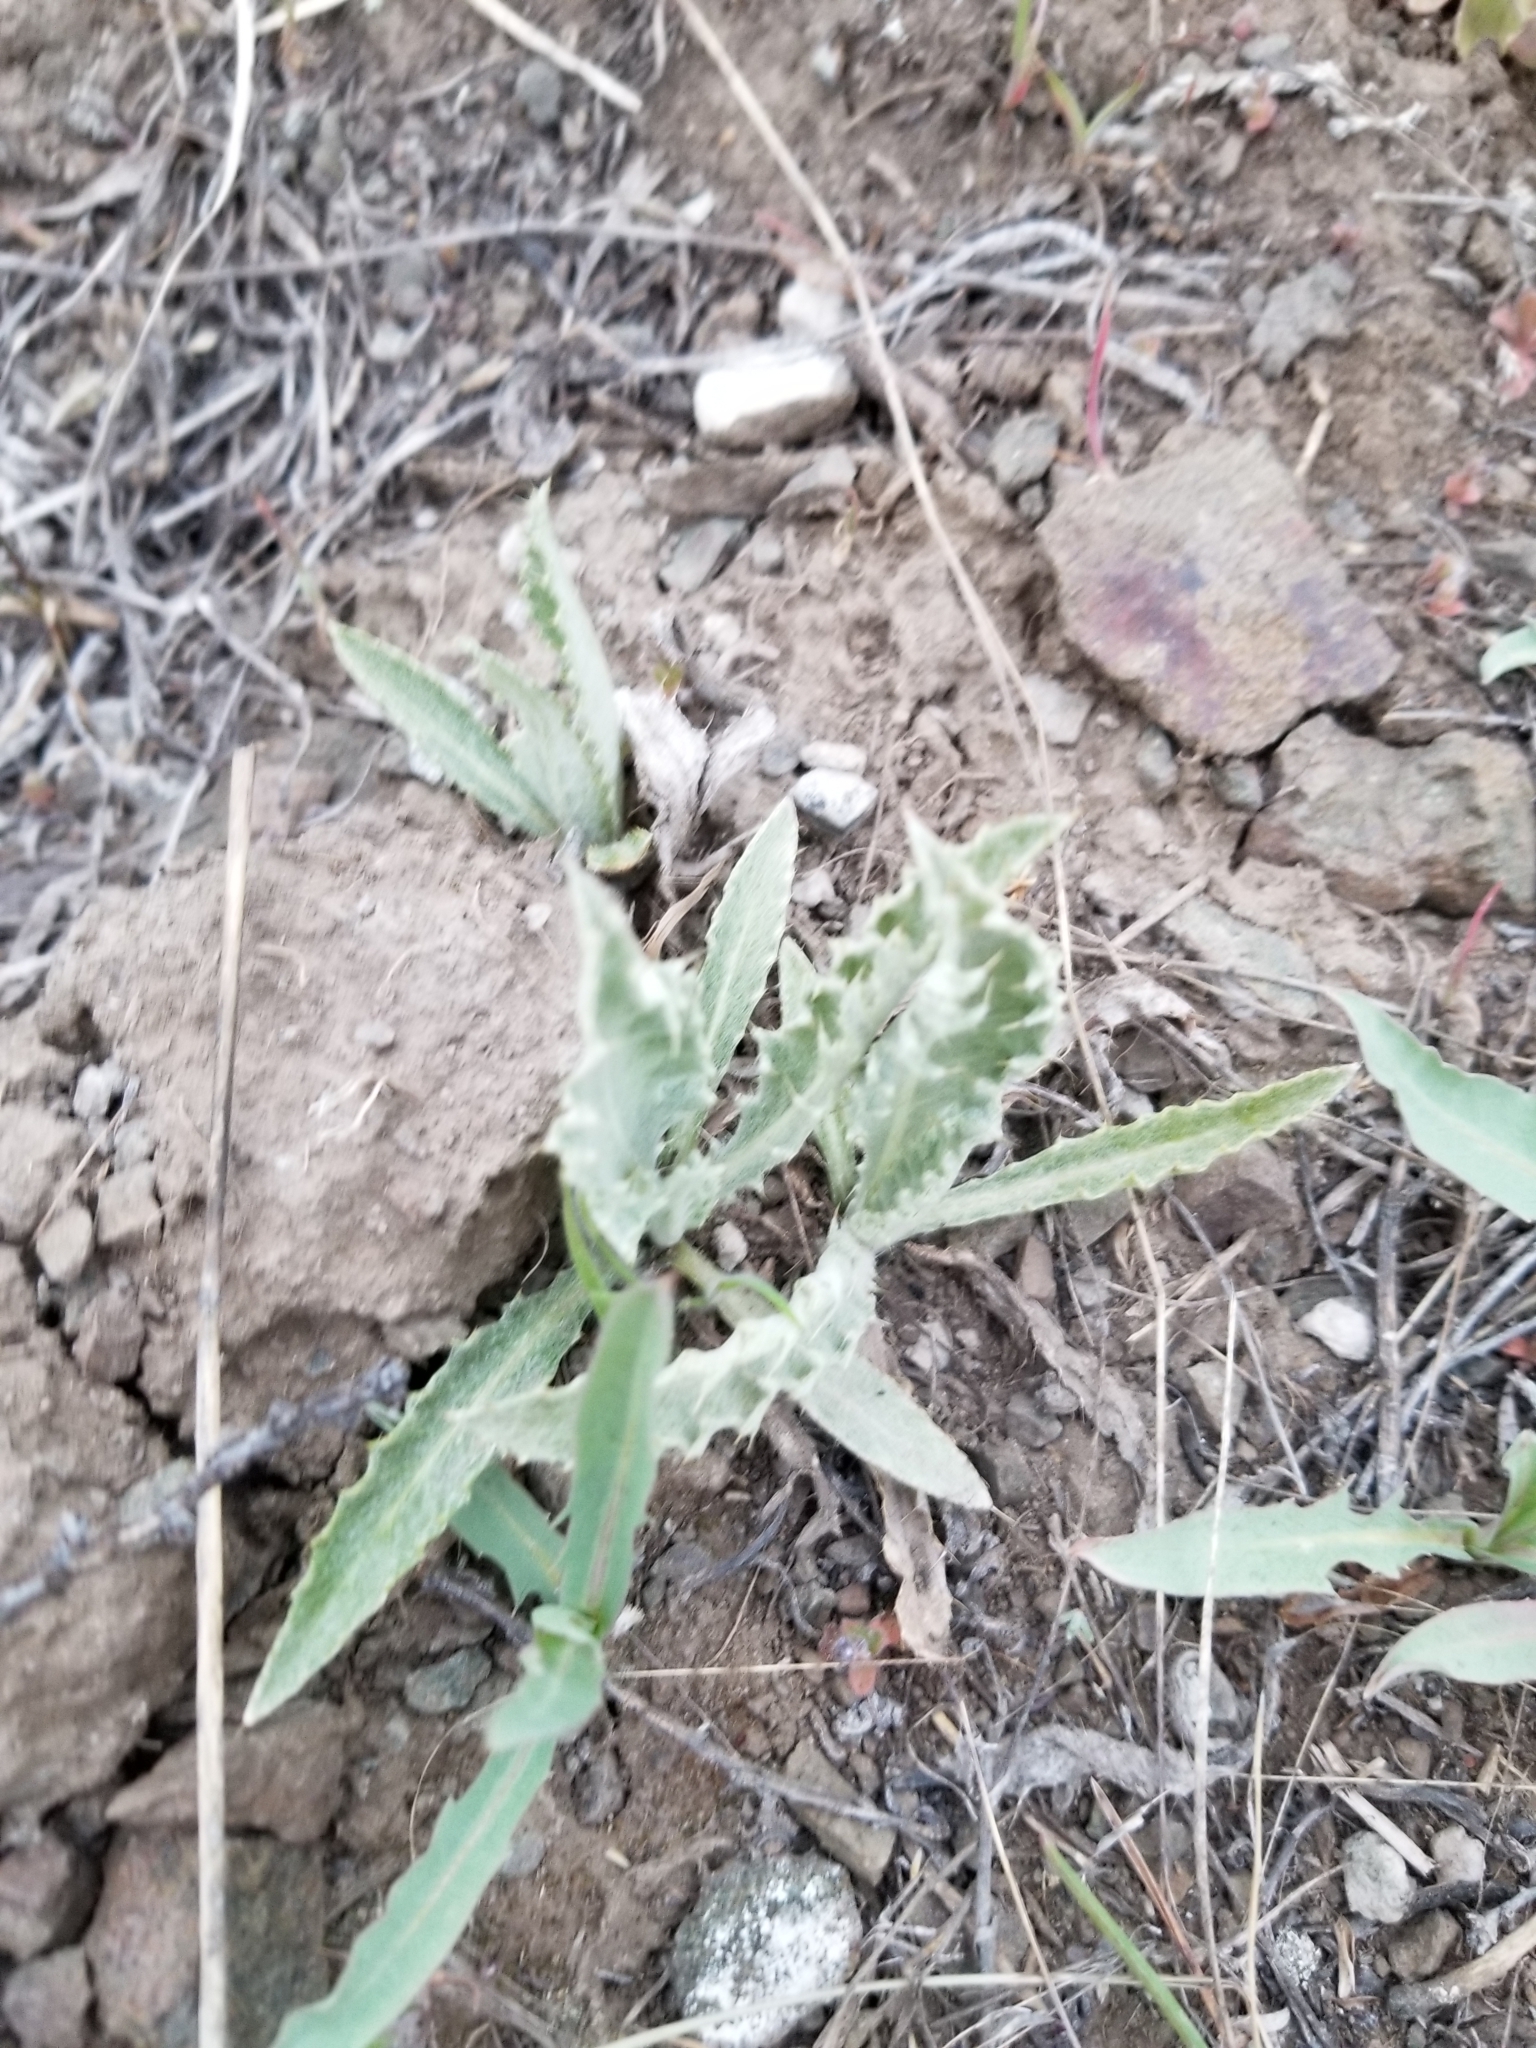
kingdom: Plantae
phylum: Tracheophyta
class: Magnoliopsida
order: Asterales
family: Asteraceae
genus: Cirsium
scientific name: Cirsium undulatum
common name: Pasture thistle
